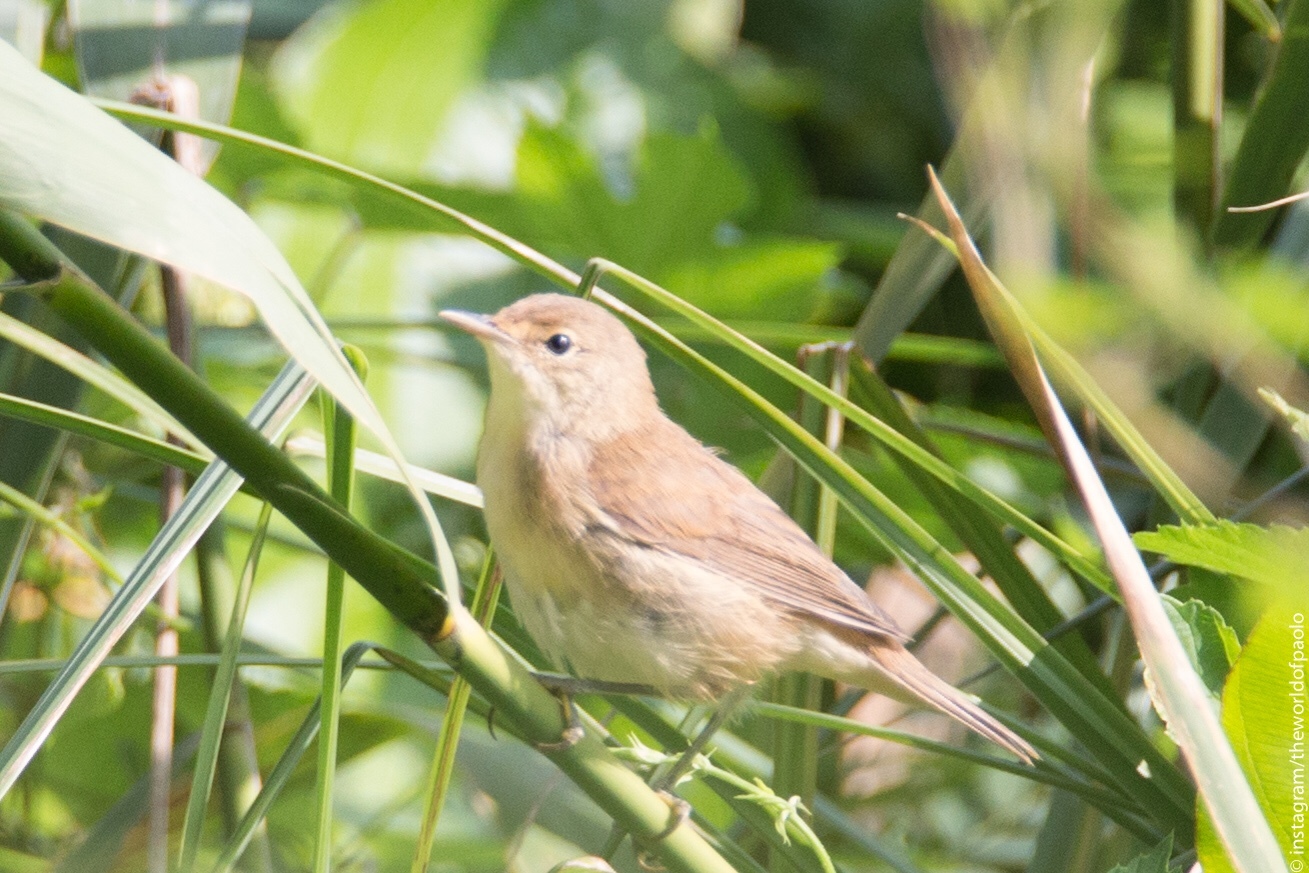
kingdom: Animalia
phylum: Chordata
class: Aves
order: Passeriformes
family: Acrocephalidae
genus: Acrocephalus
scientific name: Acrocephalus scirpaceus
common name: Eurasian reed warbler
